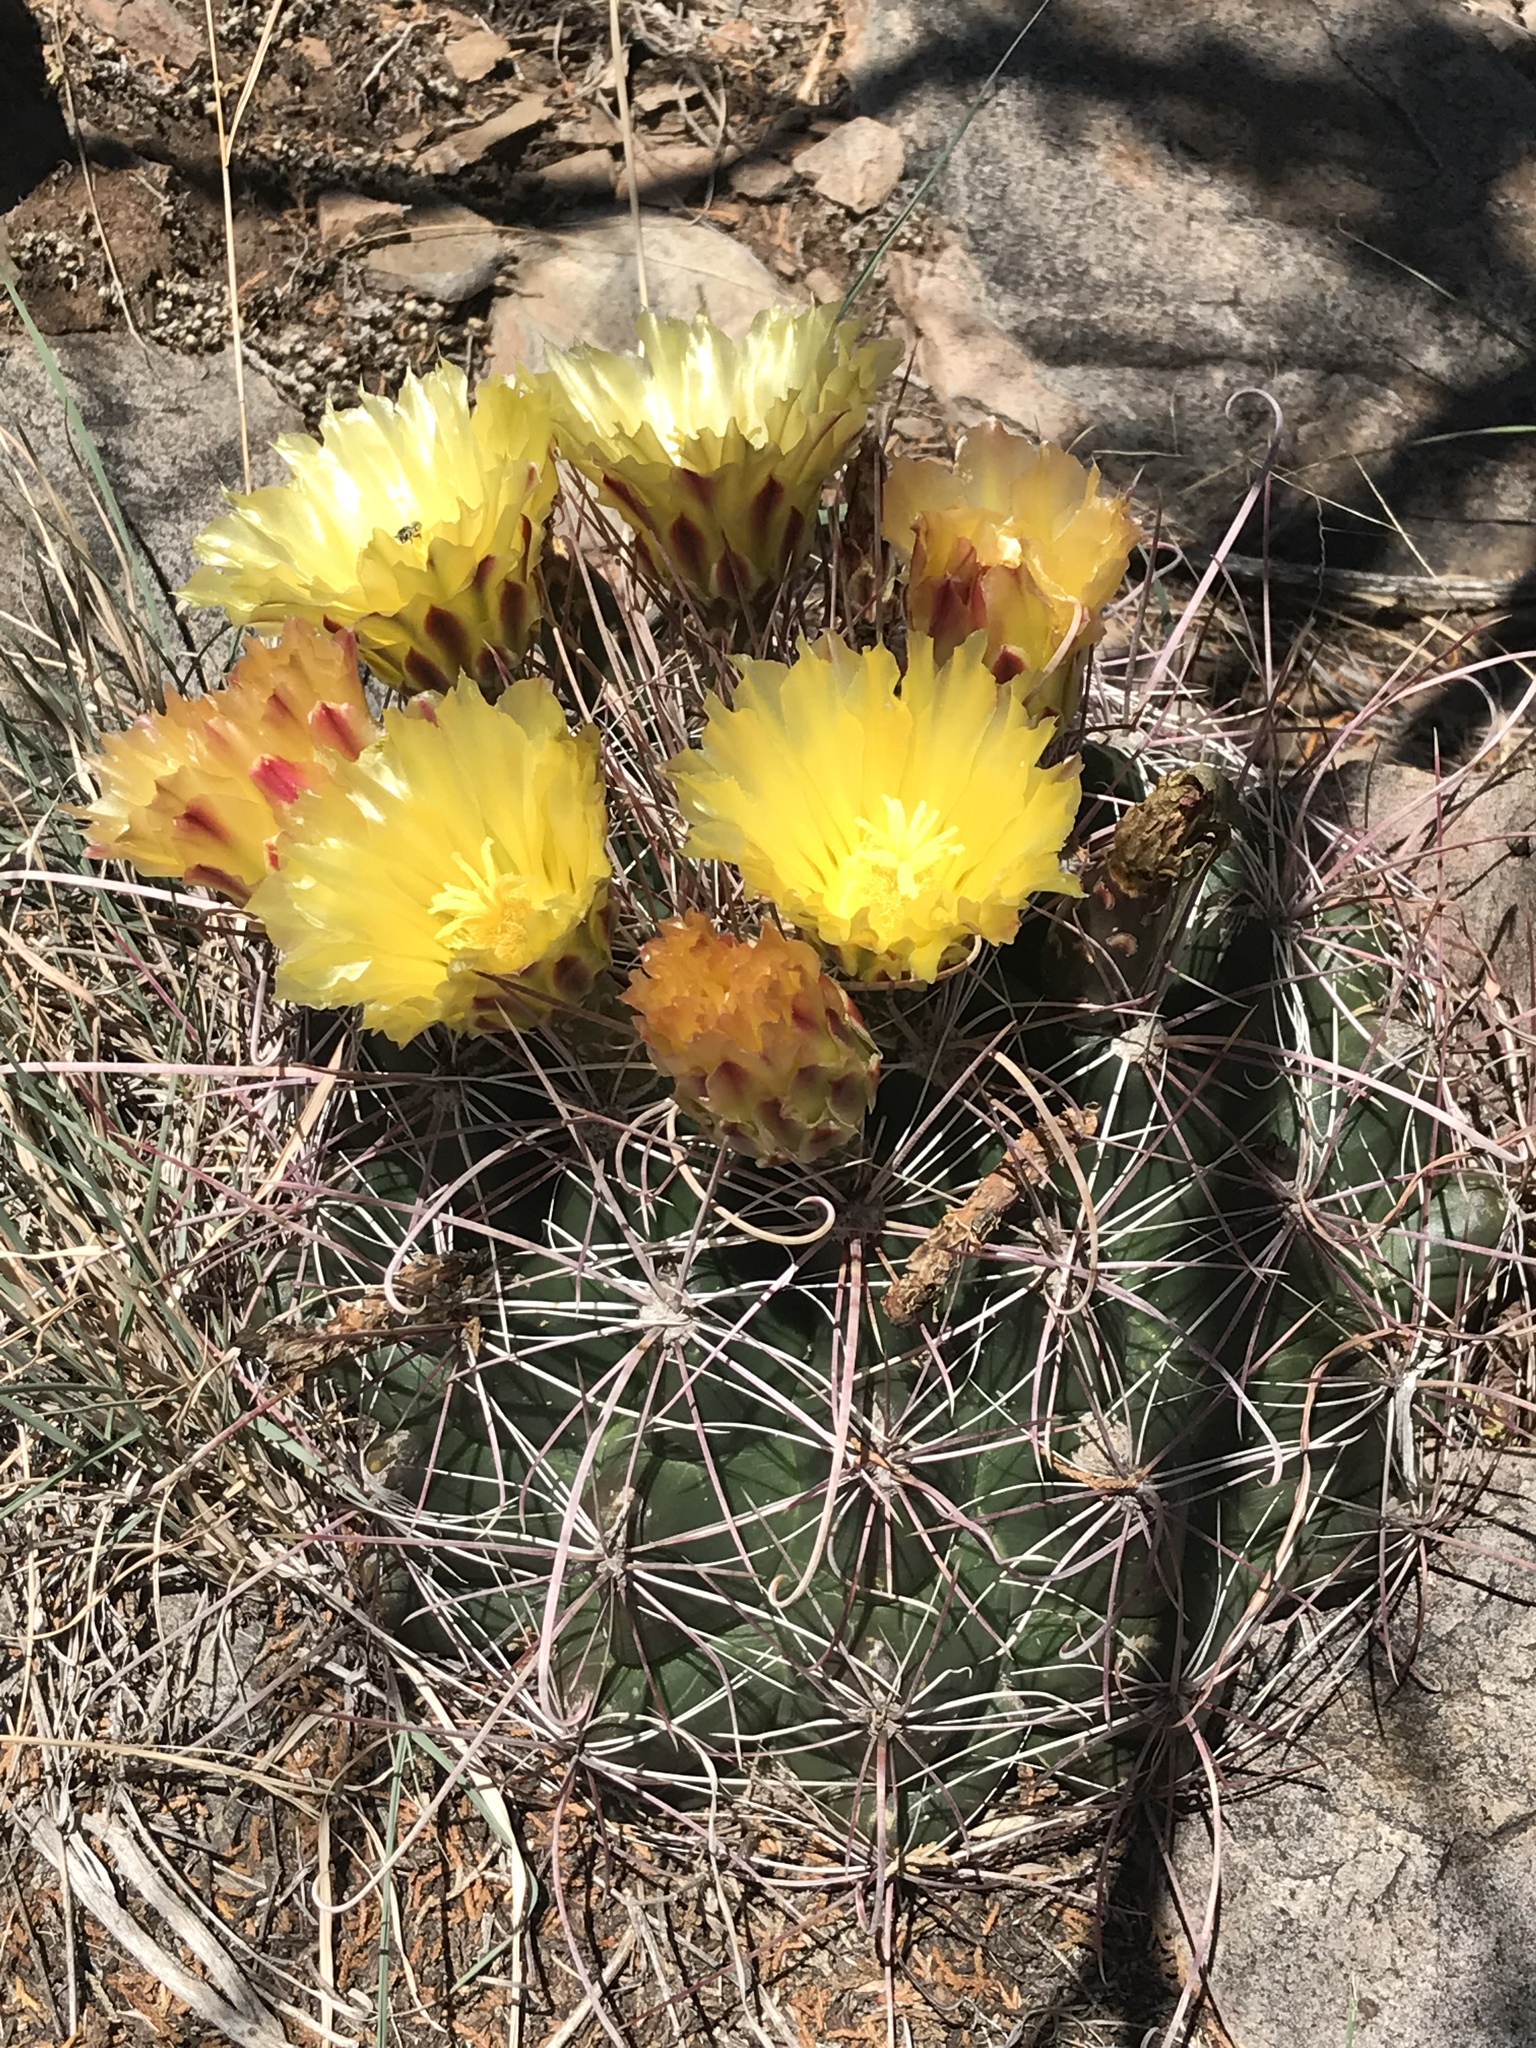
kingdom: Plantae
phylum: Tracheophyta
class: Magnoliopsida
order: Caryophyllales
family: Cactaceae
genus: Bisnaga
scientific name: Bisnaga hamatacantha
